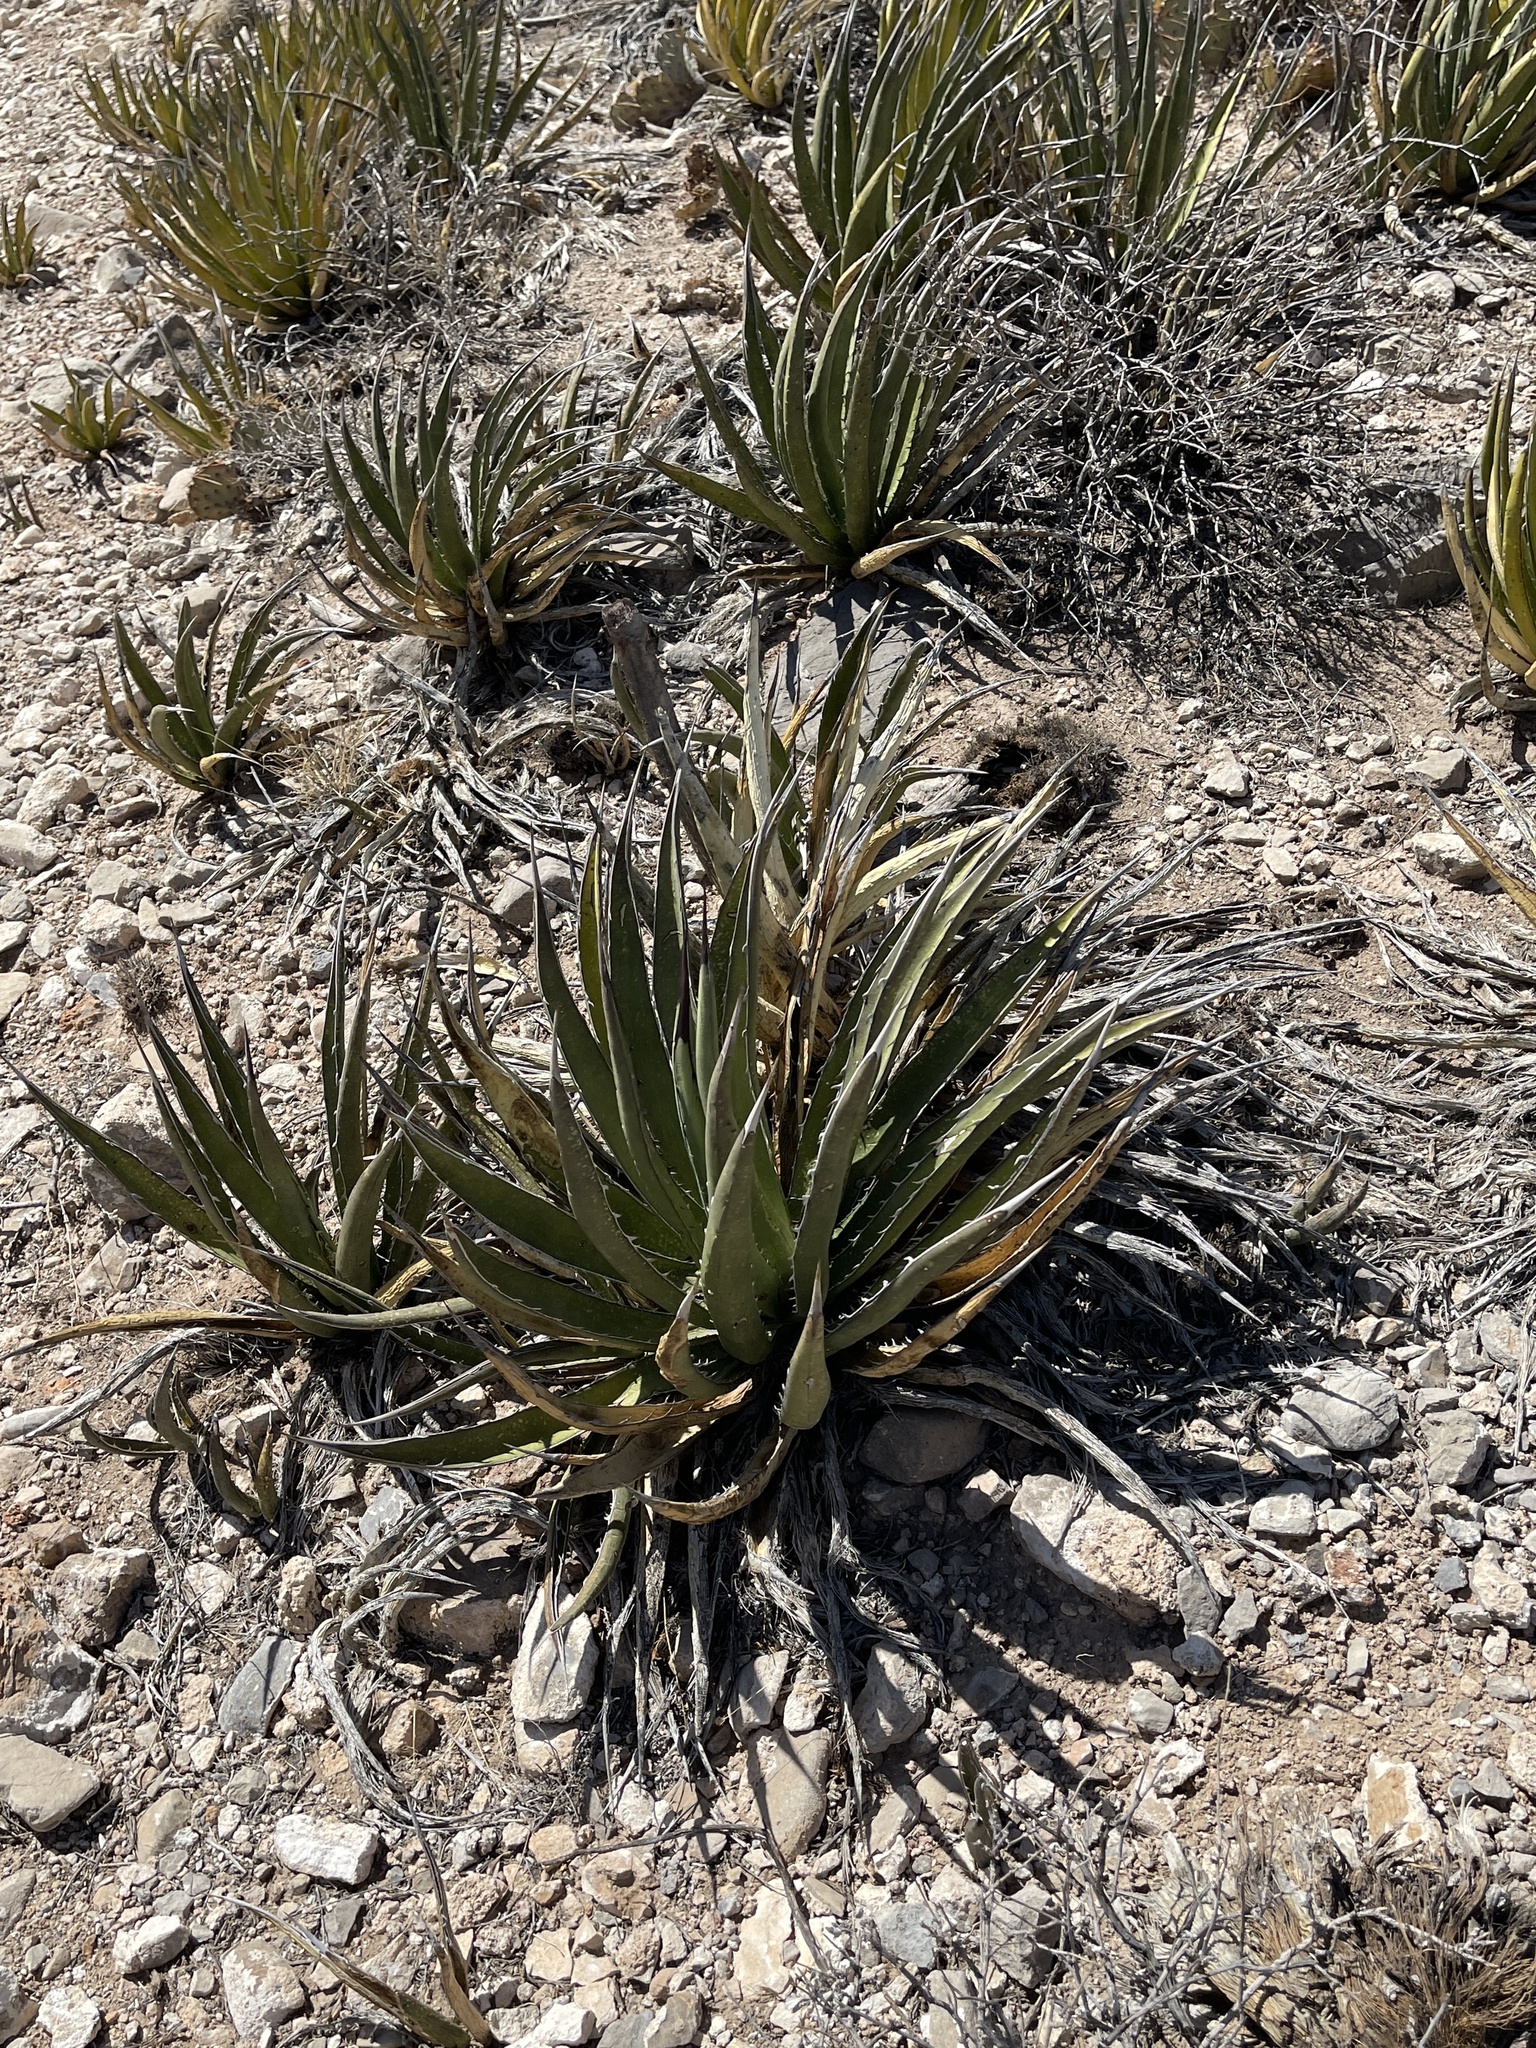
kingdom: Plantae
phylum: Tracheophyta
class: Liliopsida
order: Asparagales
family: Asparagaceae
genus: Agave
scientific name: Agave lechuguilla
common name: Lecheguilla agave
